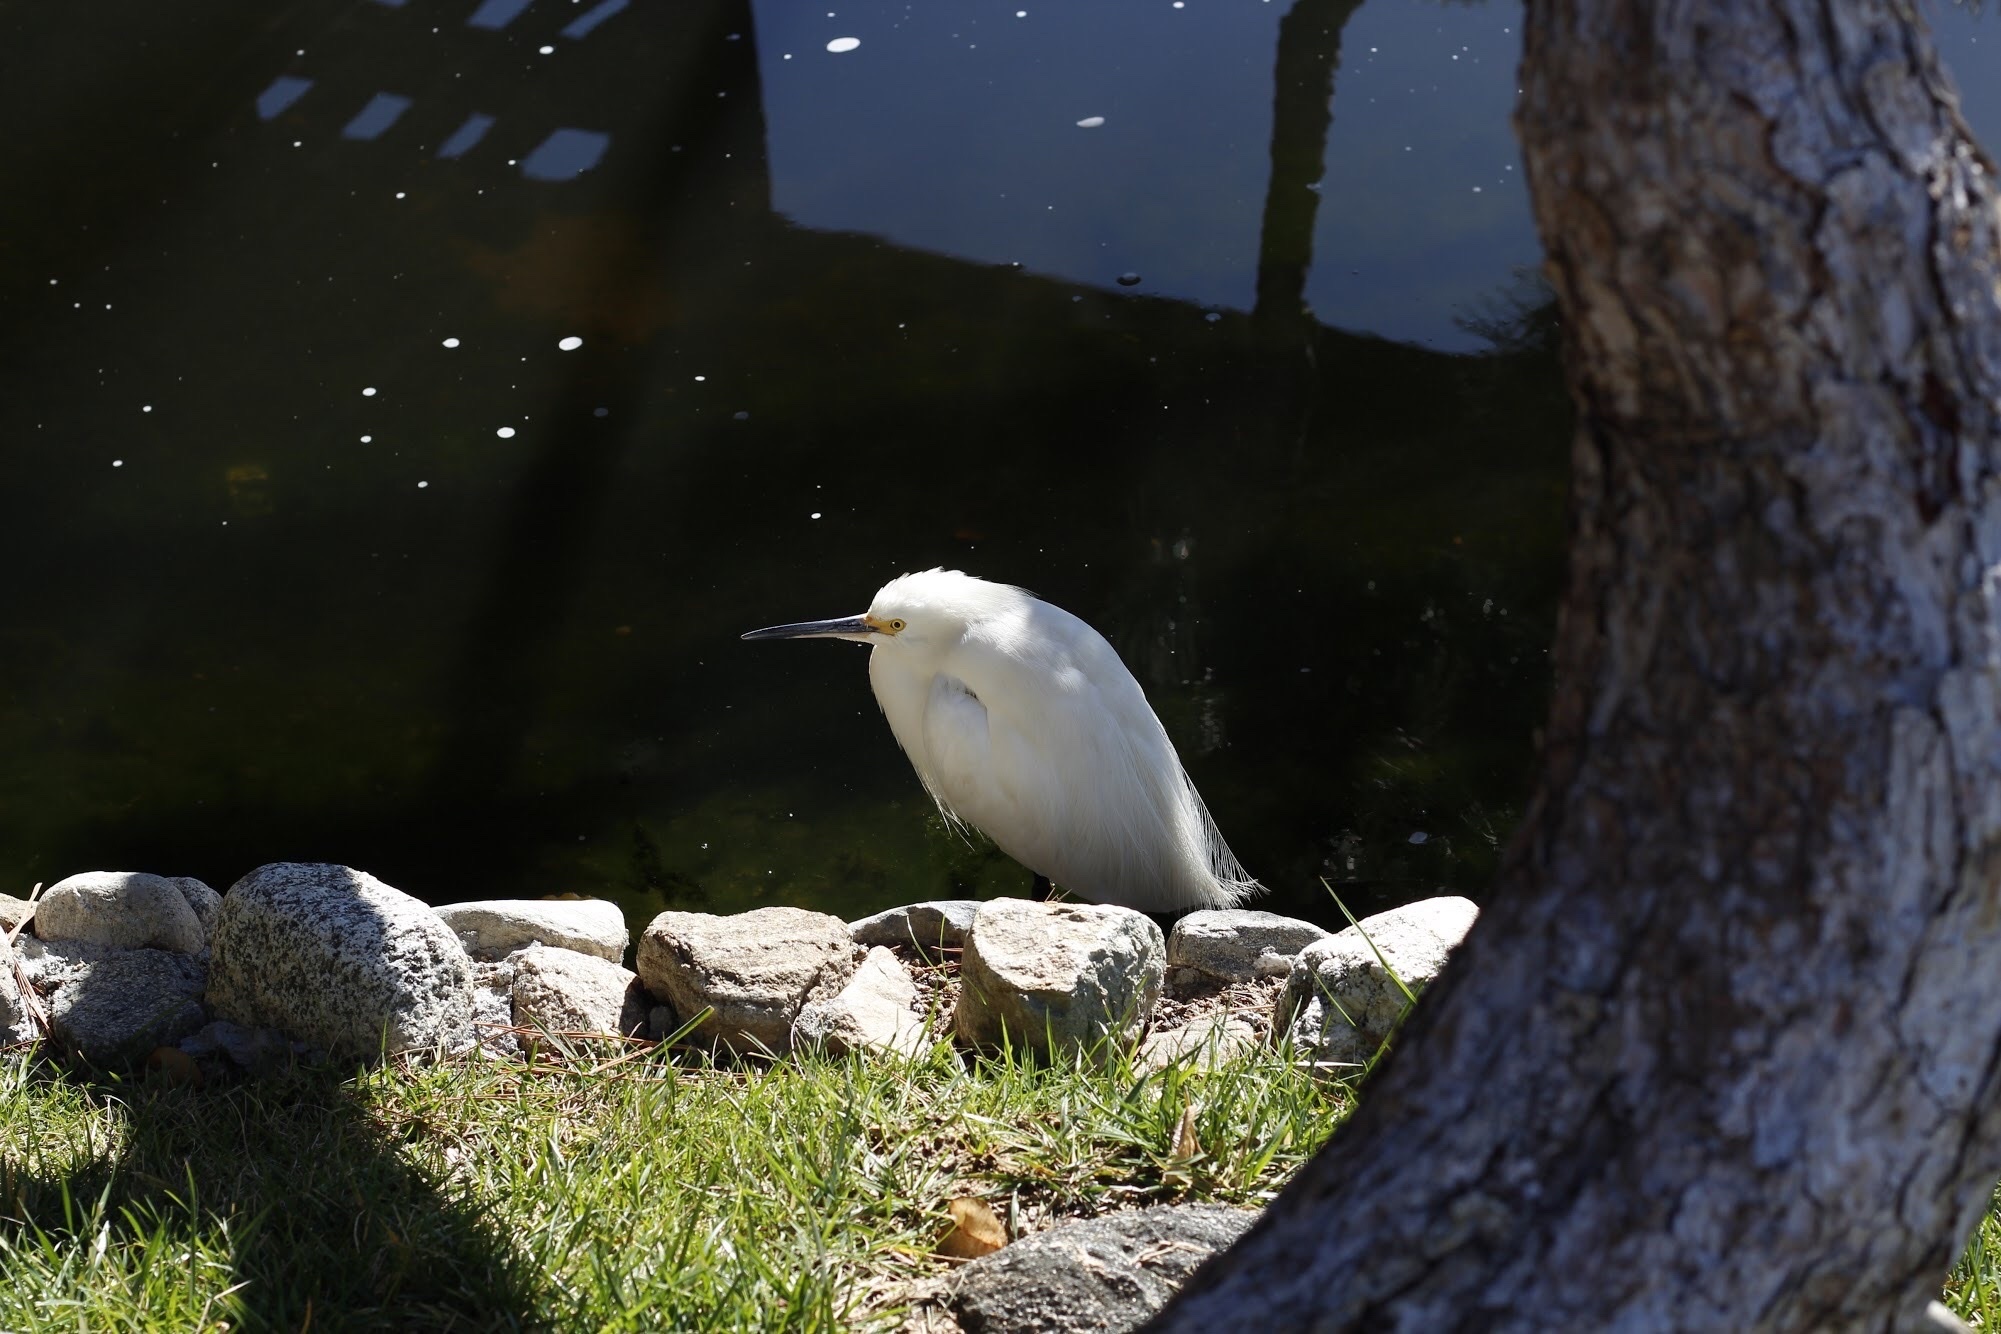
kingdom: Animalia
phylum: Chordata
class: Aves
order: Pelecaniformes
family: Ardeidae
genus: Egretta
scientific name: Egretta thula
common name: Snowy egret
